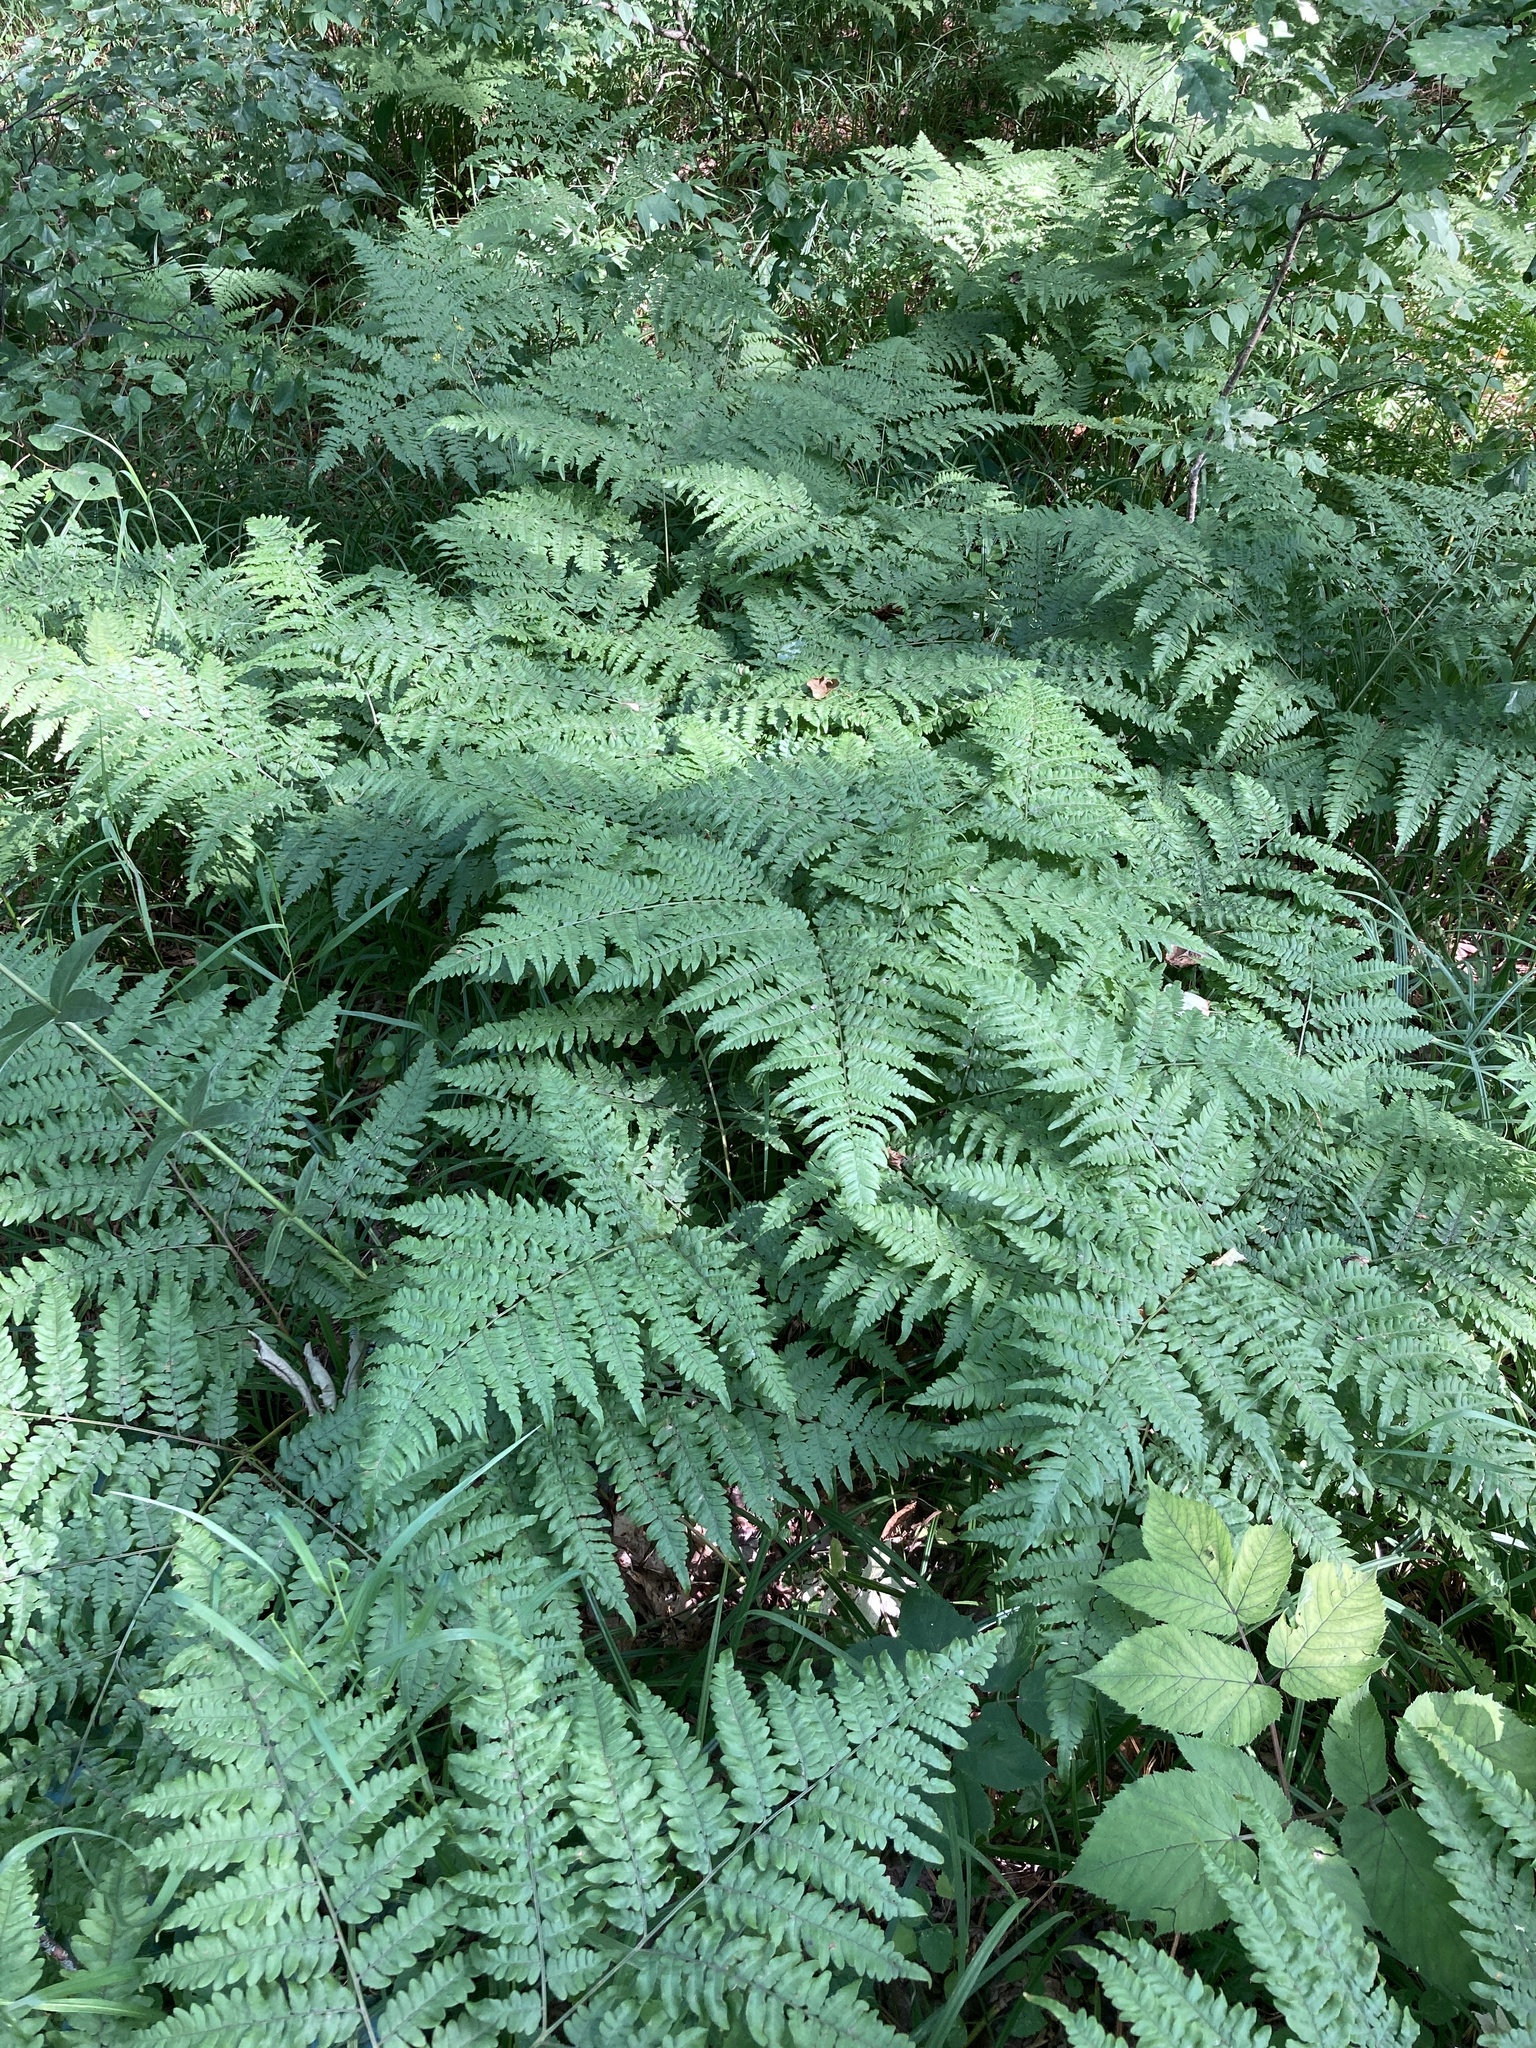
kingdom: Plantae
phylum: Tracheophyta
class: Polypodiopsida
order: Polypodiales
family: Dennstaedtiaceae
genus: Pteridium
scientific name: Pteridium aquilinum
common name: Bracken
